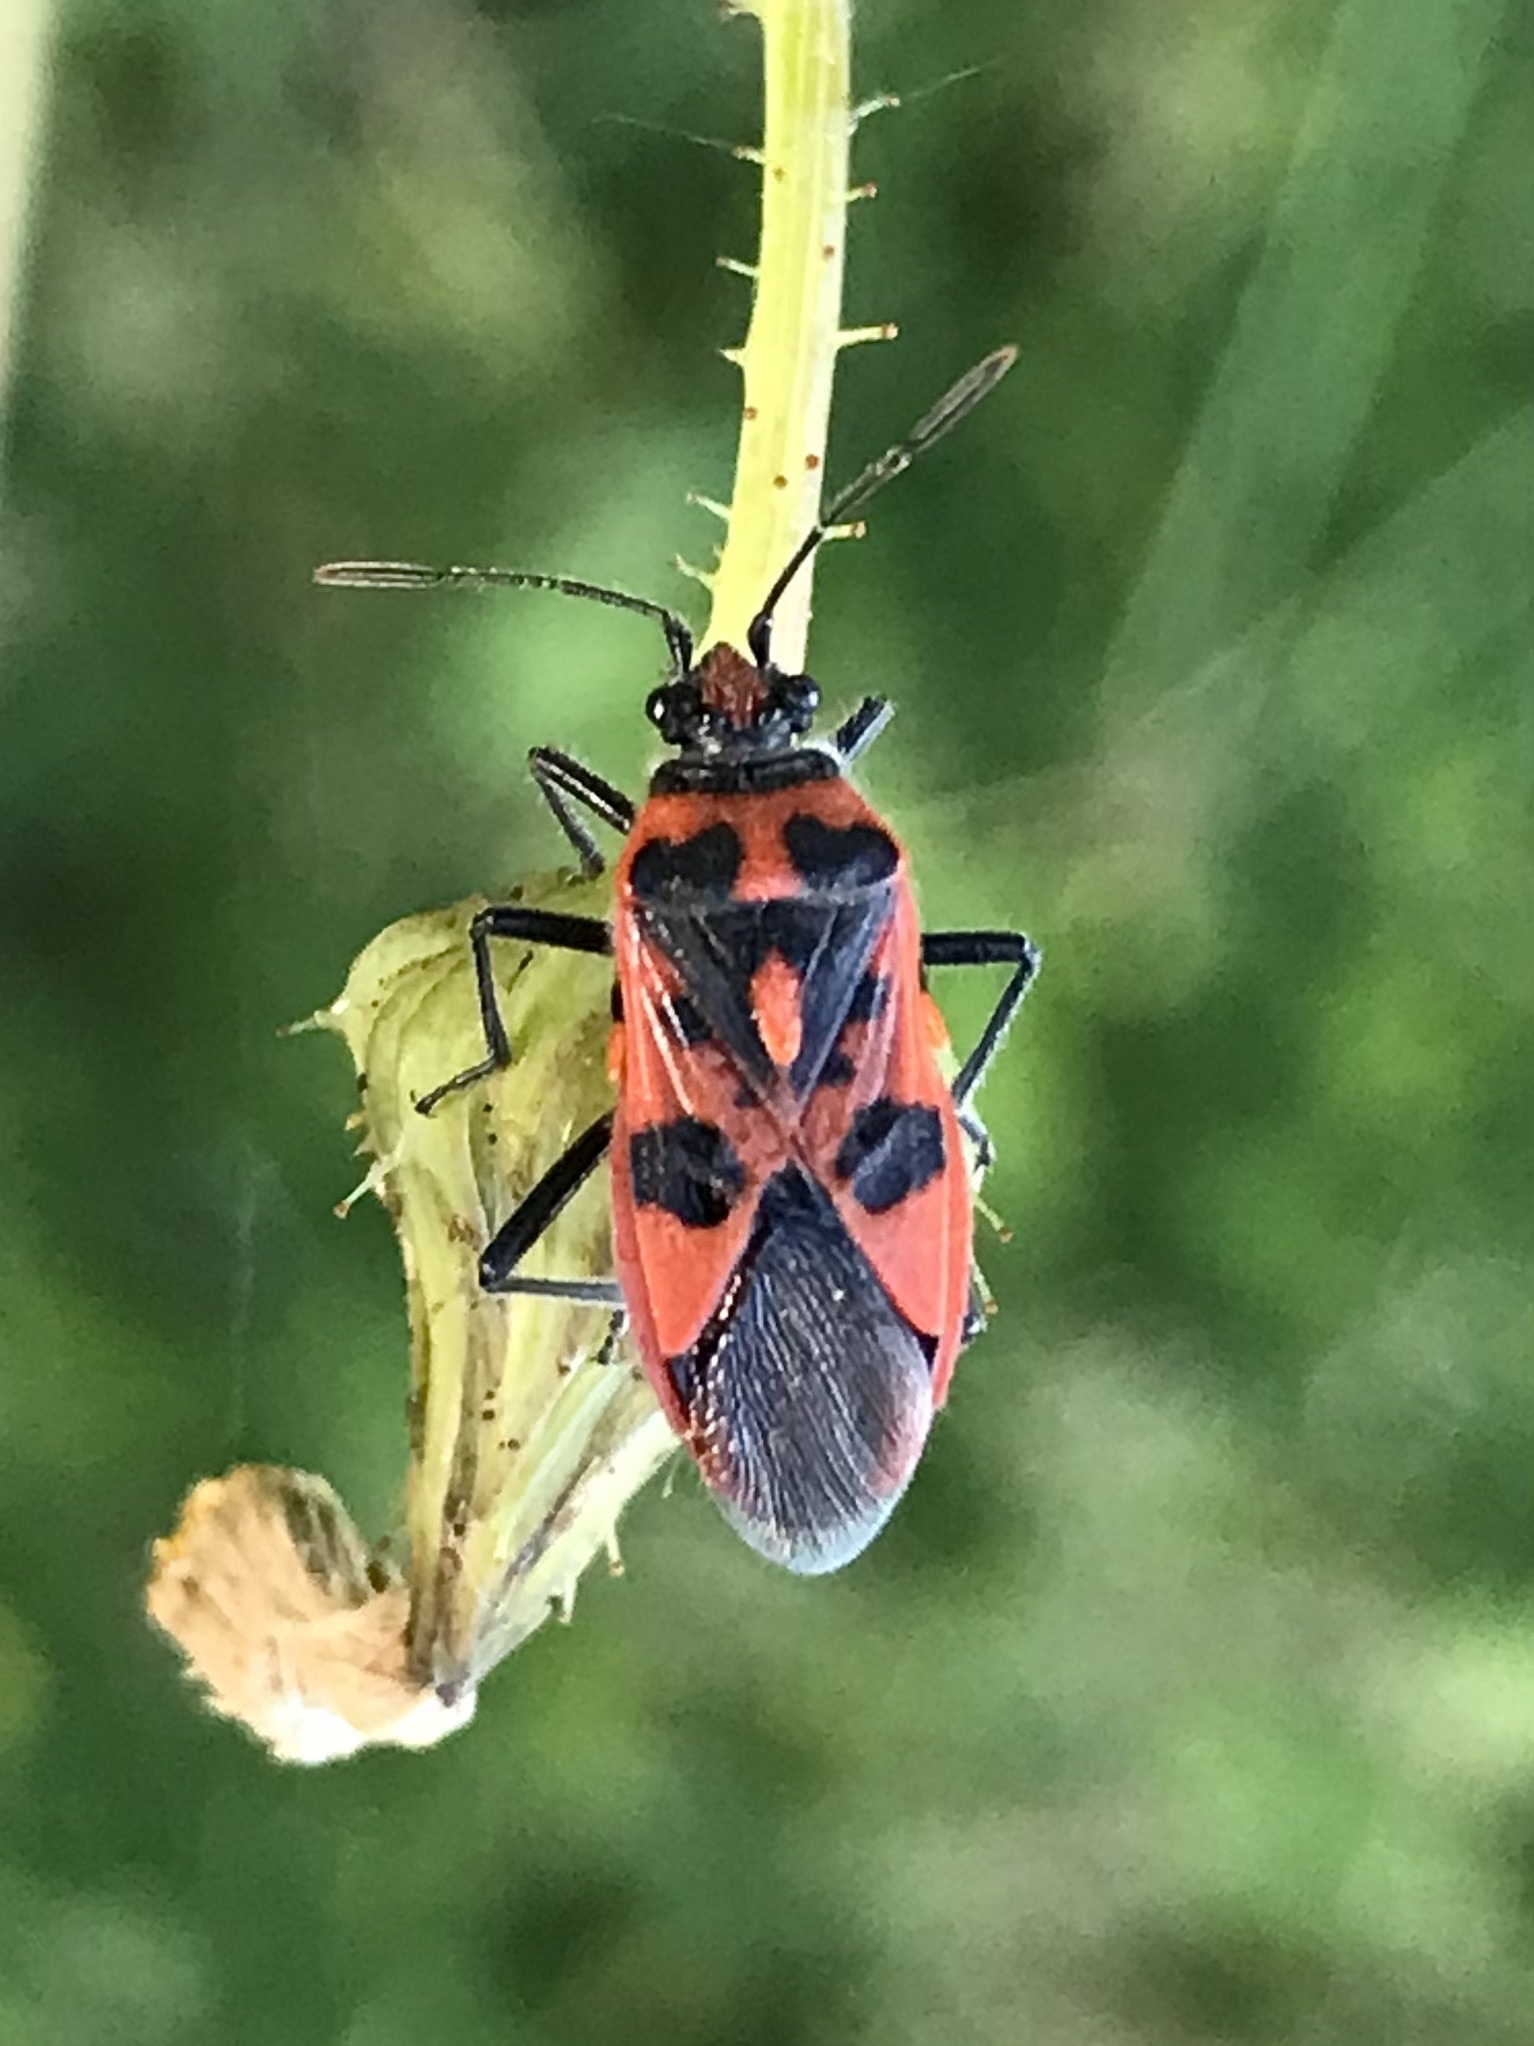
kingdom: Animalia
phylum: Arthropoda
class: Insecta
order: Hemiptera
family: Rhopalidae
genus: Corizus
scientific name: Corizus hyoscyami
